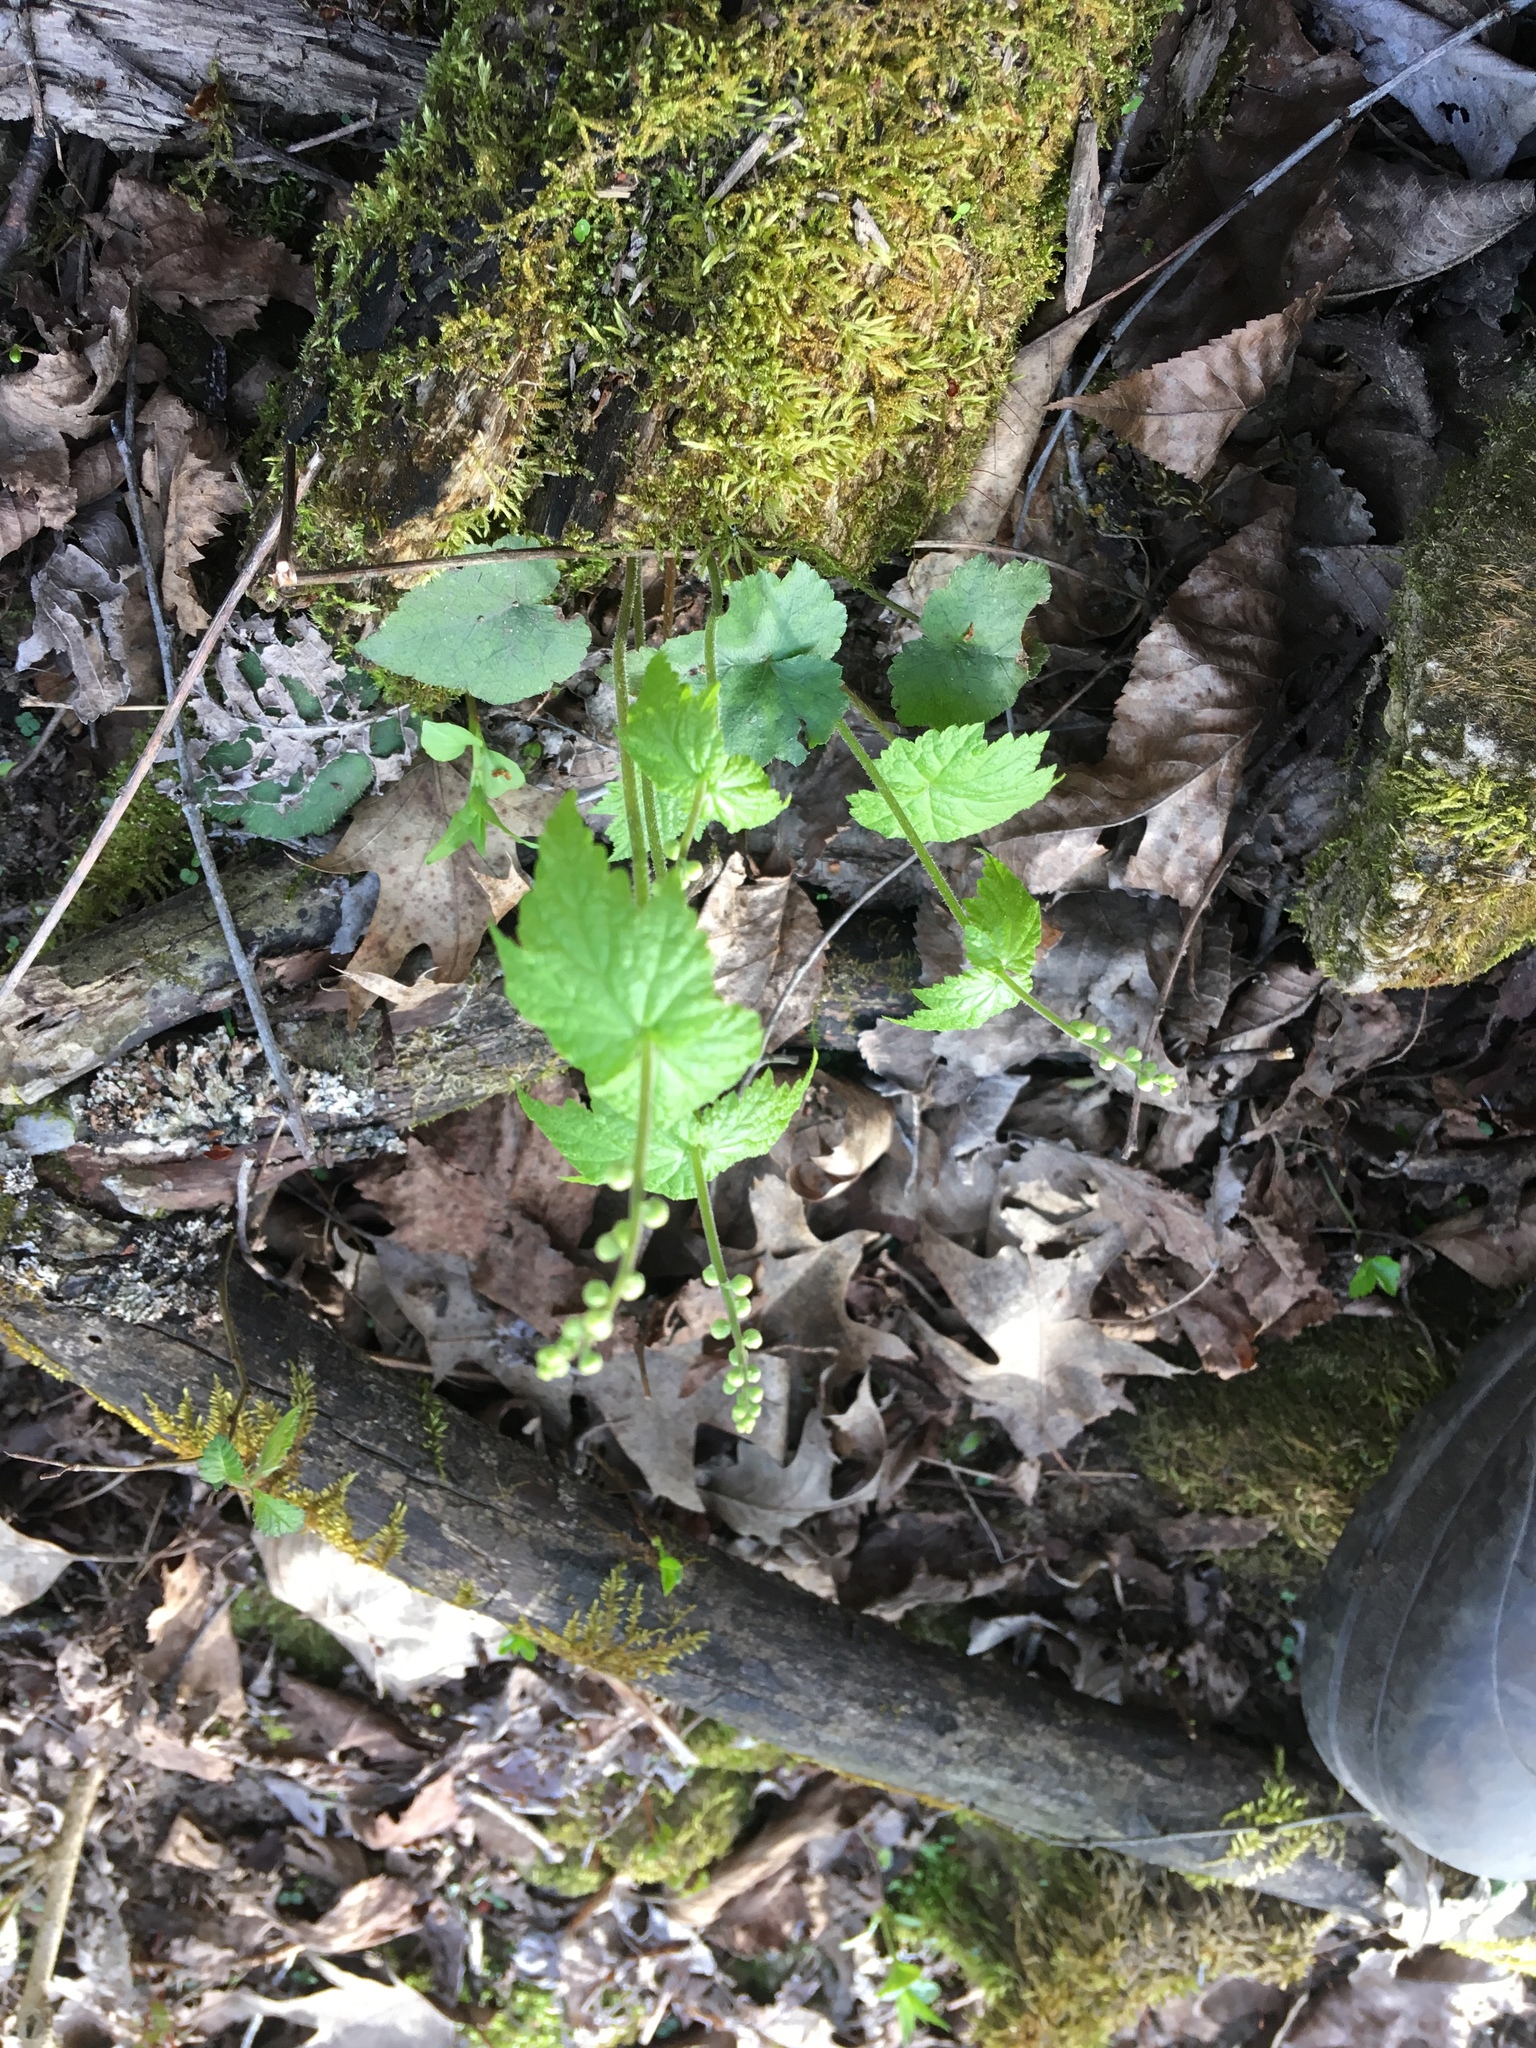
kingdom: Plantae
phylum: Tracheophyta
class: Magnoliopsida
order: Saxifragales
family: Saxifragaceae
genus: Mitella
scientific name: Mitella diphylla
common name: Coolwort
